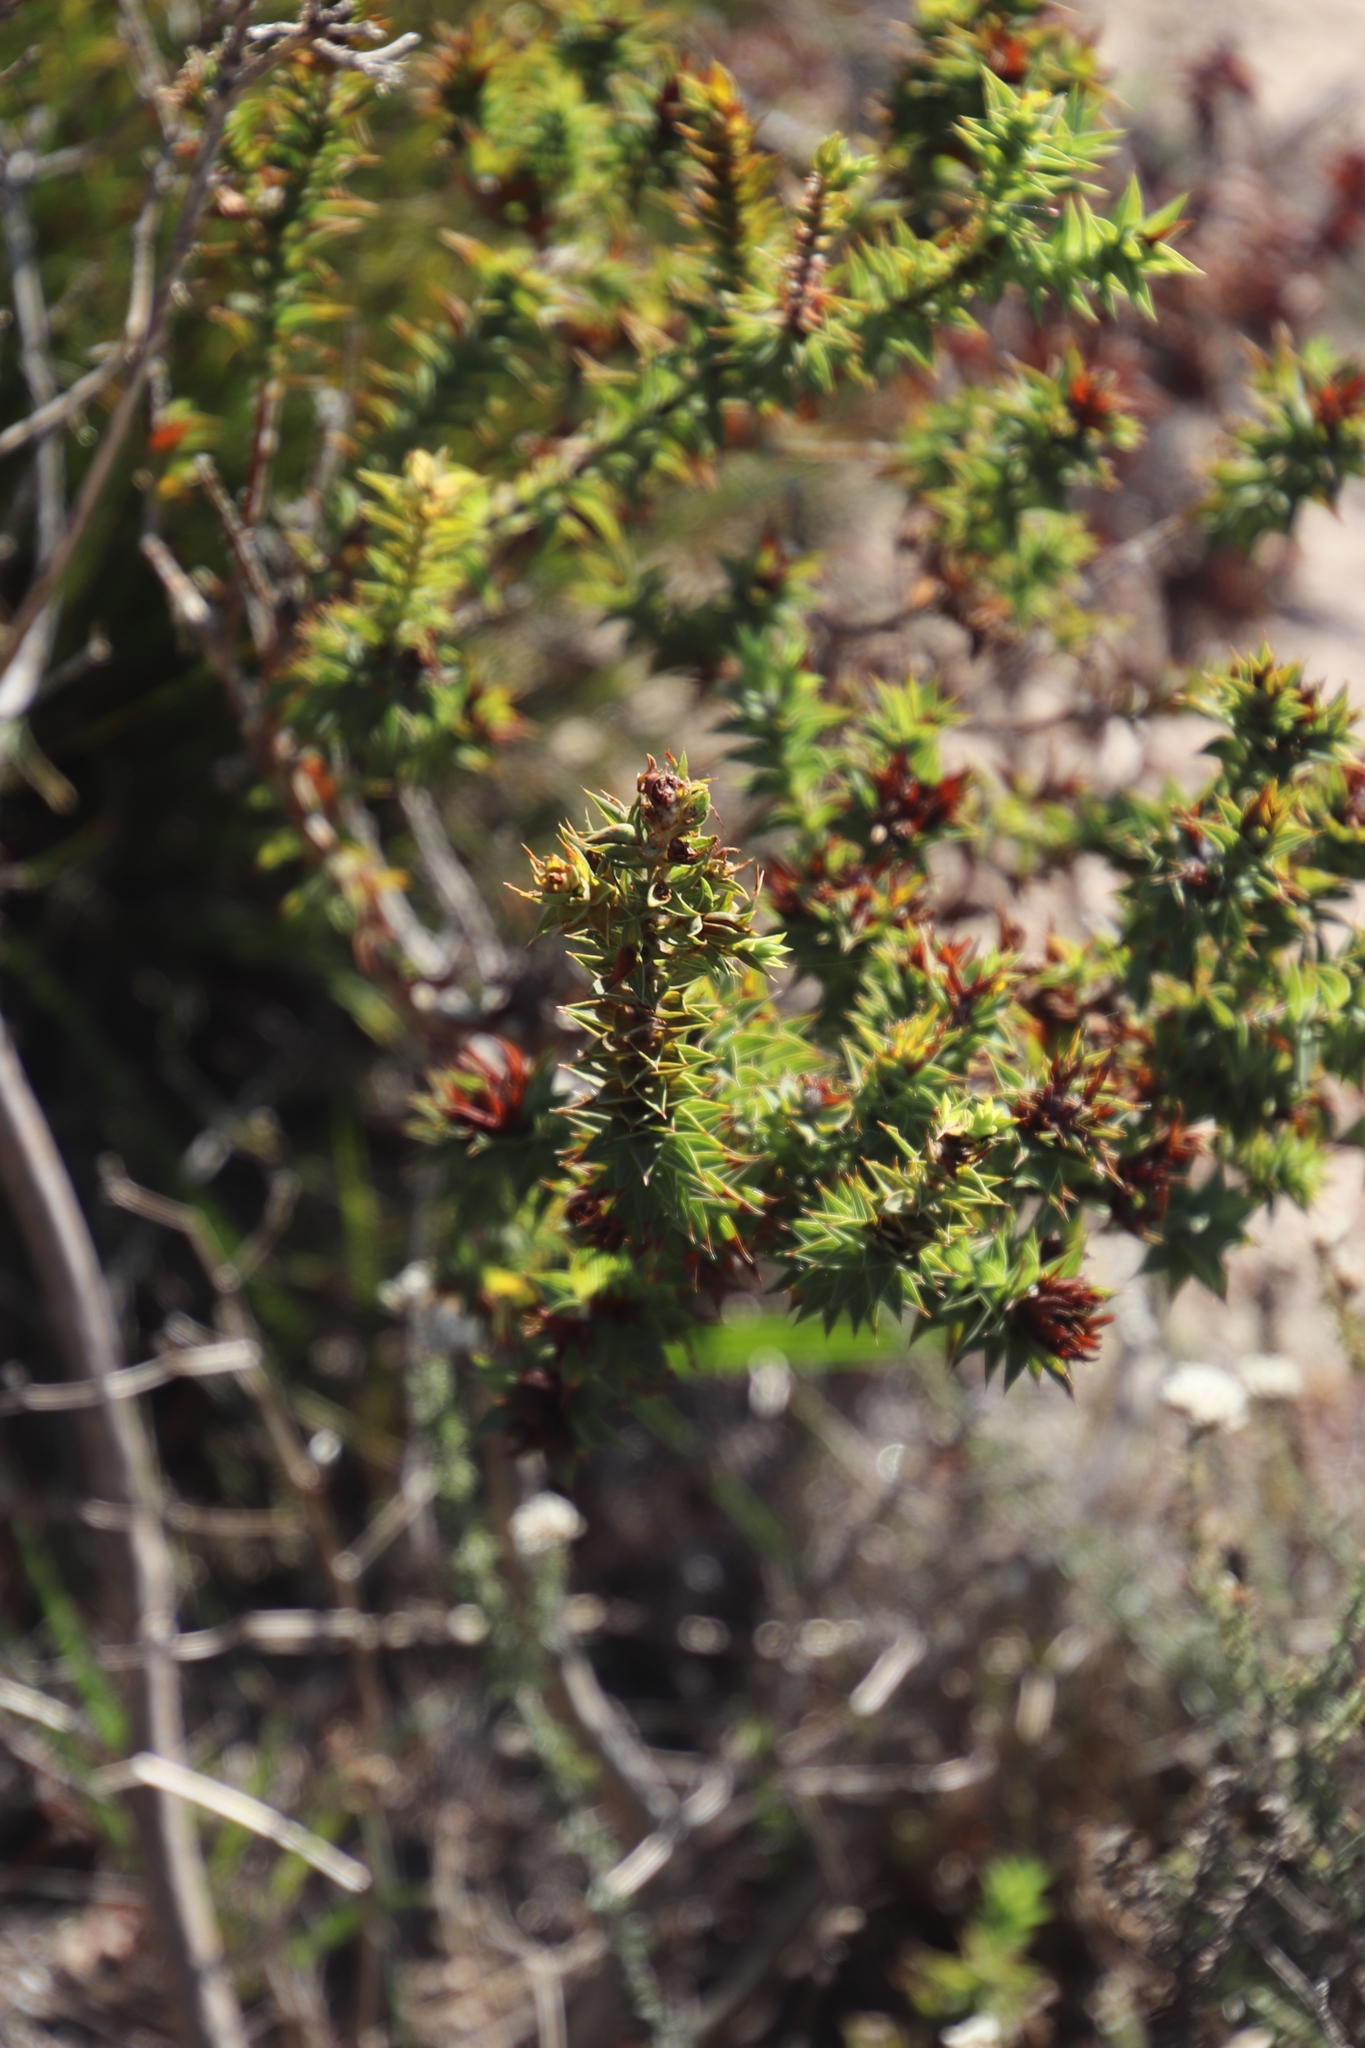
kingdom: Plantae
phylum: Tracheophyta
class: Magnoliopsida
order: Fabales
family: Fabaceae
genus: Aspalathus
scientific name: Aspalathus cordata
